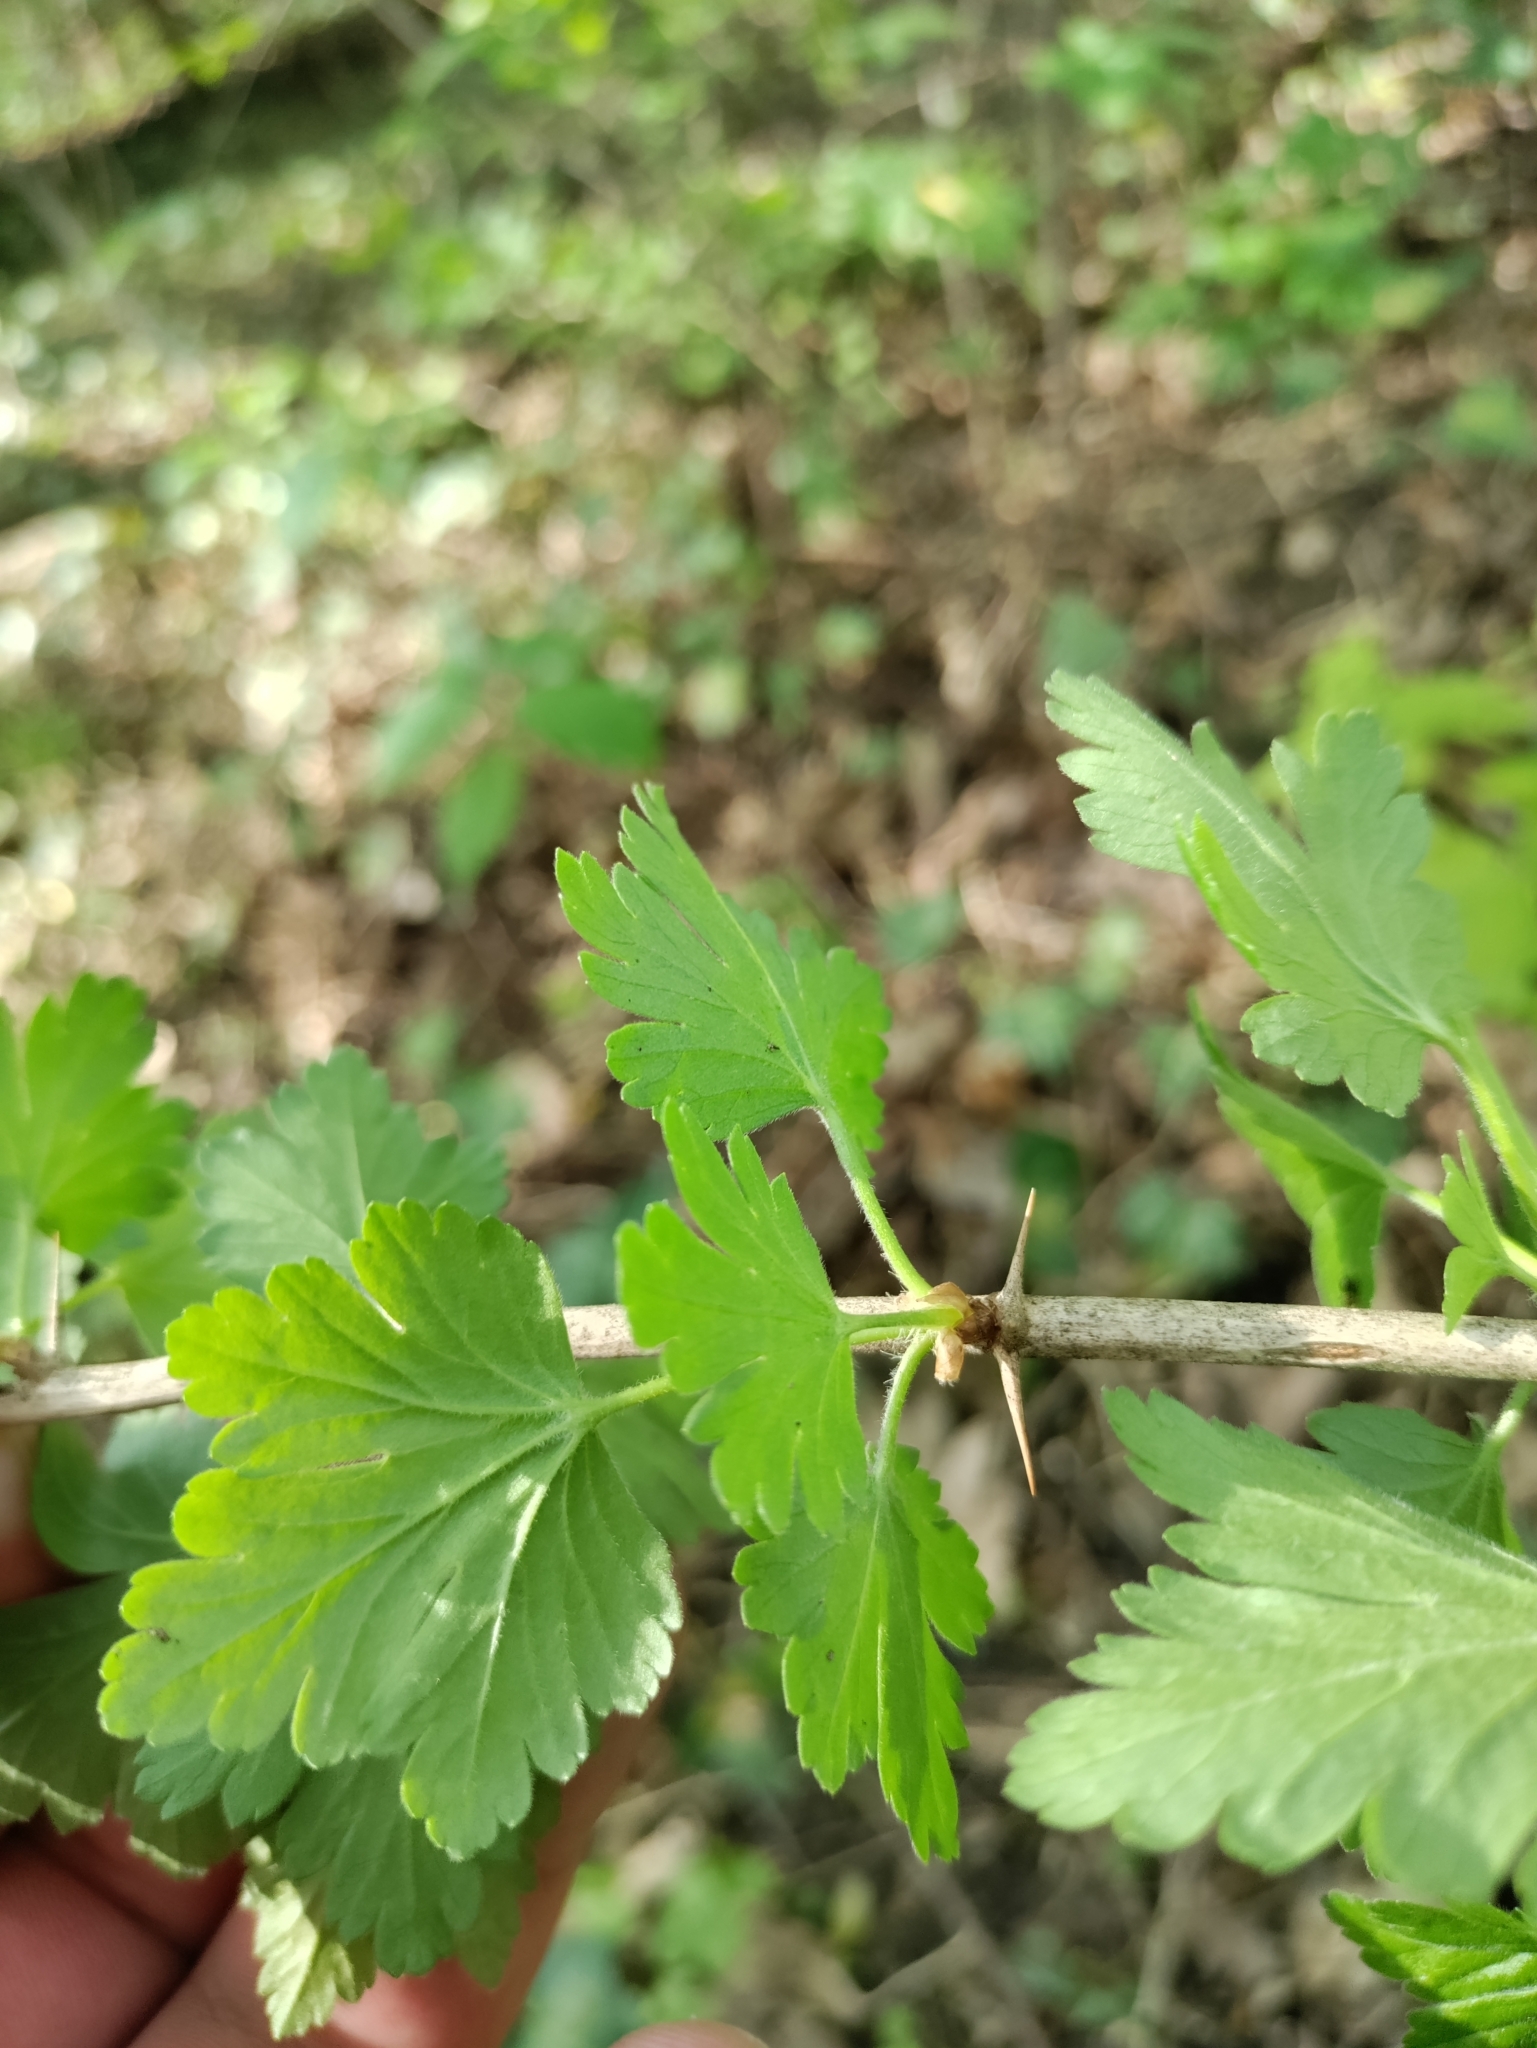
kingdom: Plantae
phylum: Tracheophyta
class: Magnoliopsida
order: Saxifragales
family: Grossulariaceae
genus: Ribes
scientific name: Ribes uva-crispa
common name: Gooseberry
